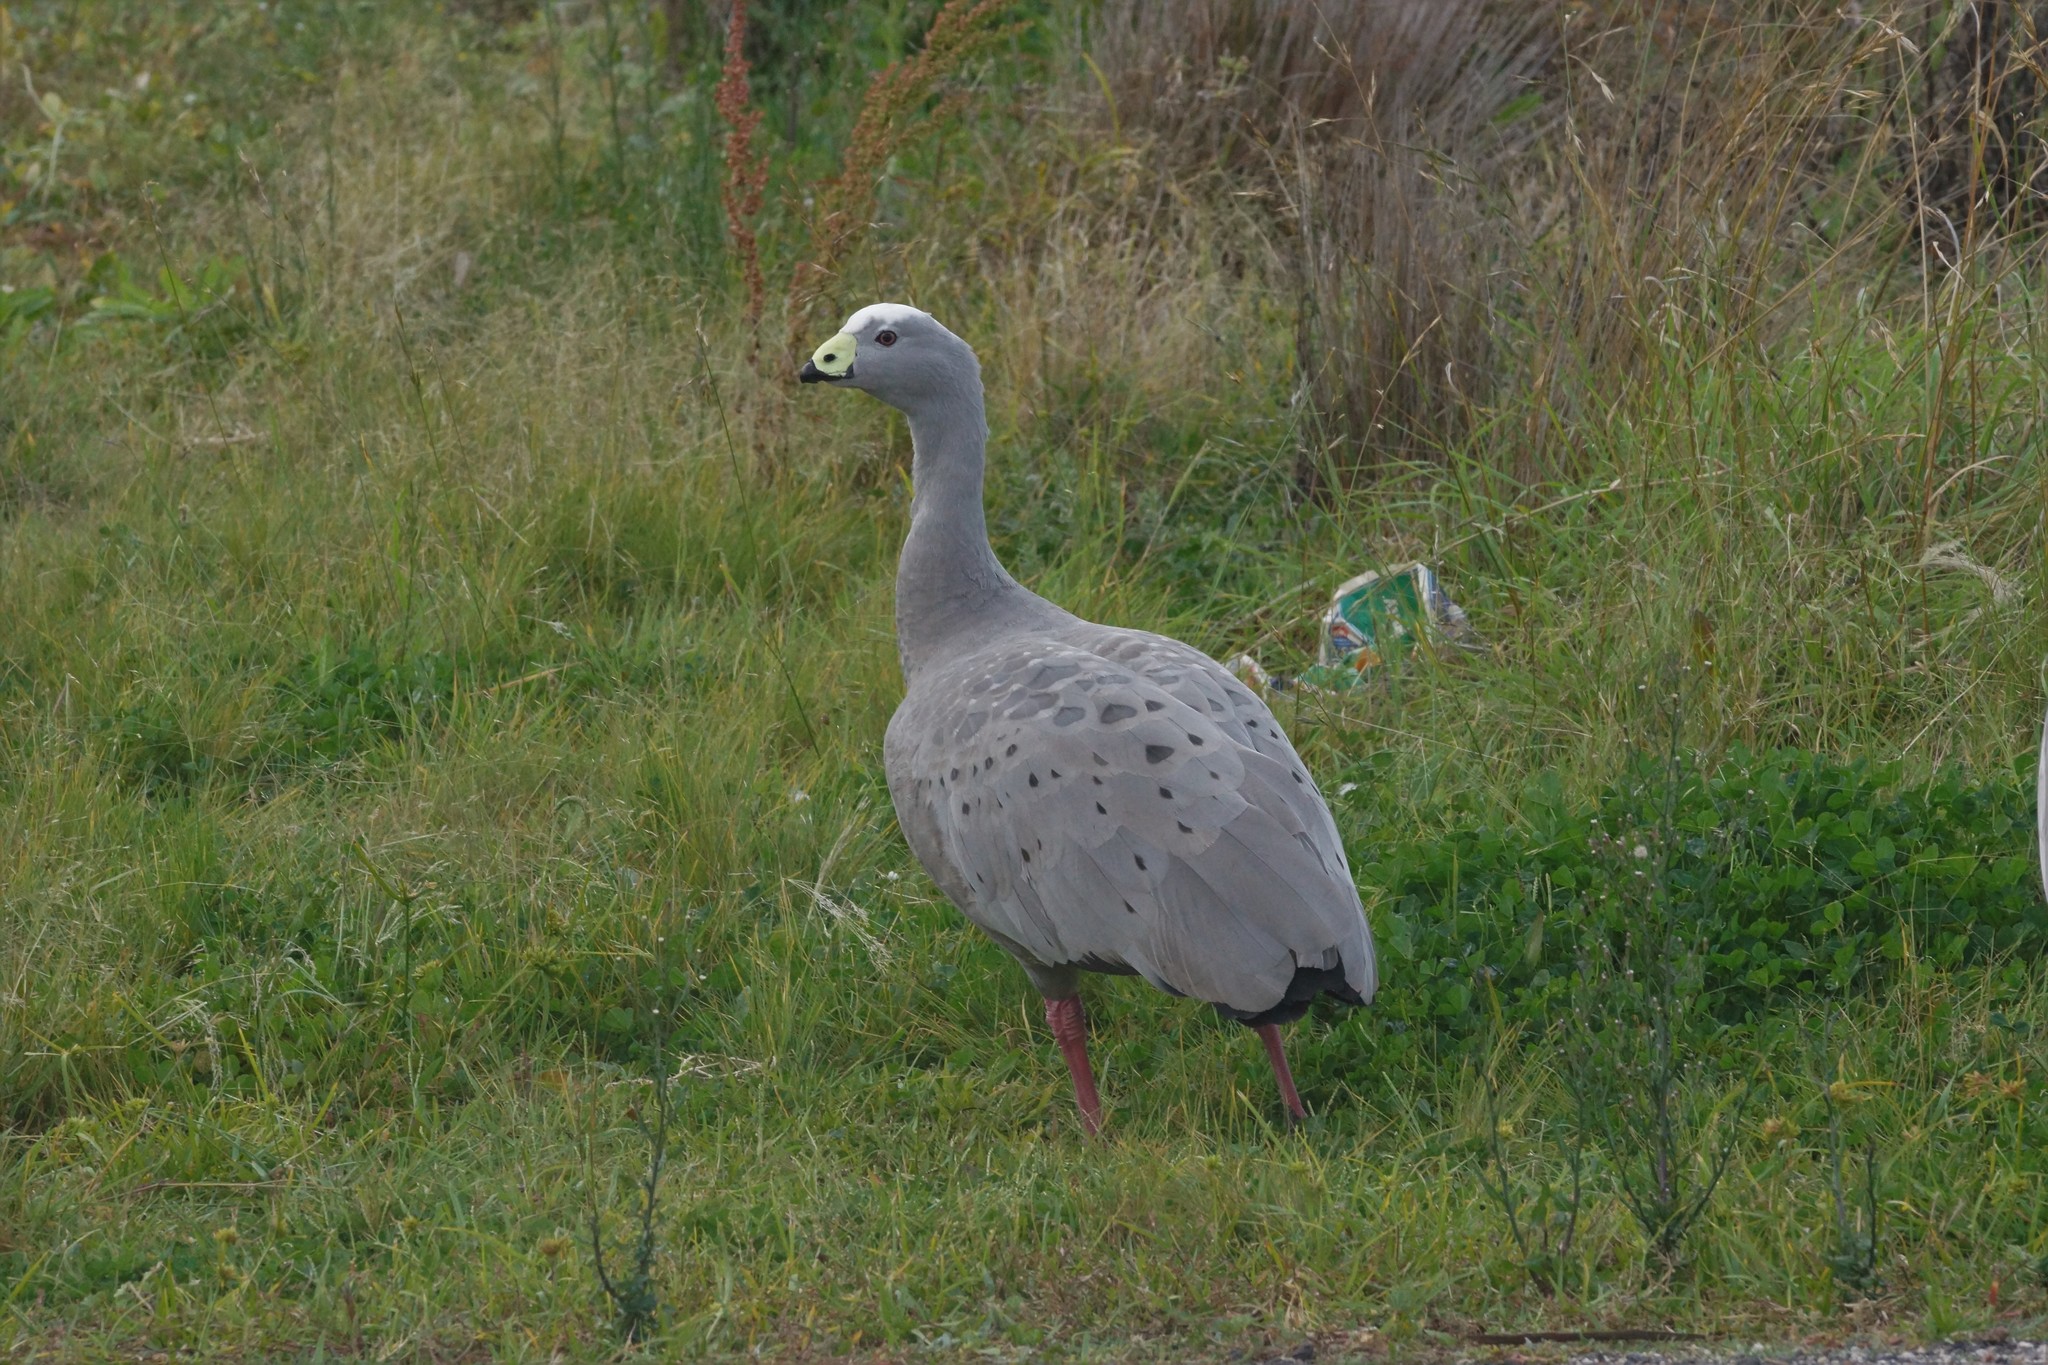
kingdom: Animalia
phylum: Chordata
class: Aves
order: Anseriformes
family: Anatidae
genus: Cereopsis
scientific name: Cereopsis novaehollandiae
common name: Cape barren goose
